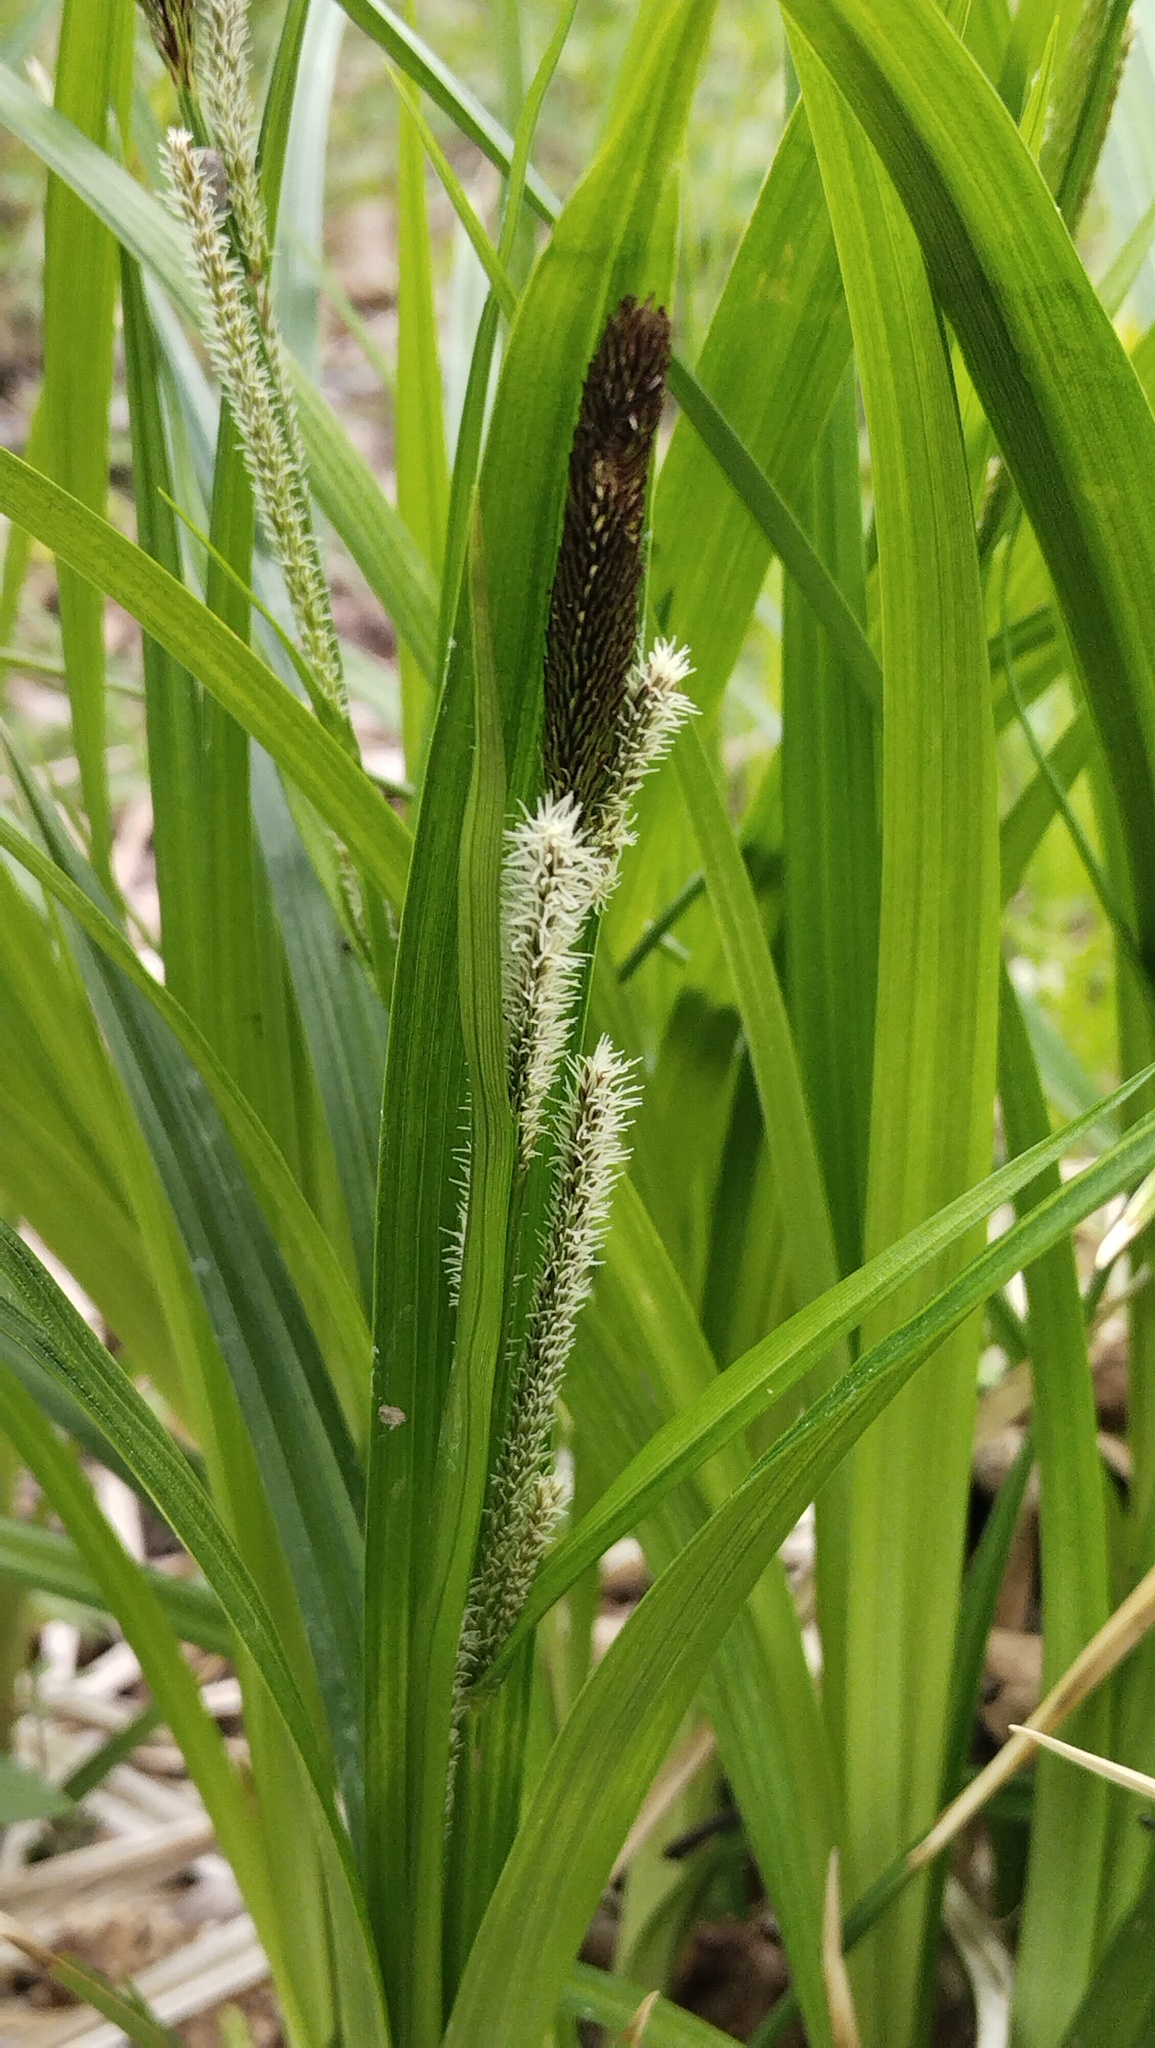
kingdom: Plantae
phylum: Tracheophyta
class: Liliopsida
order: Poales
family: Cyperaceae
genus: Carex
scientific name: Carex dispalata
